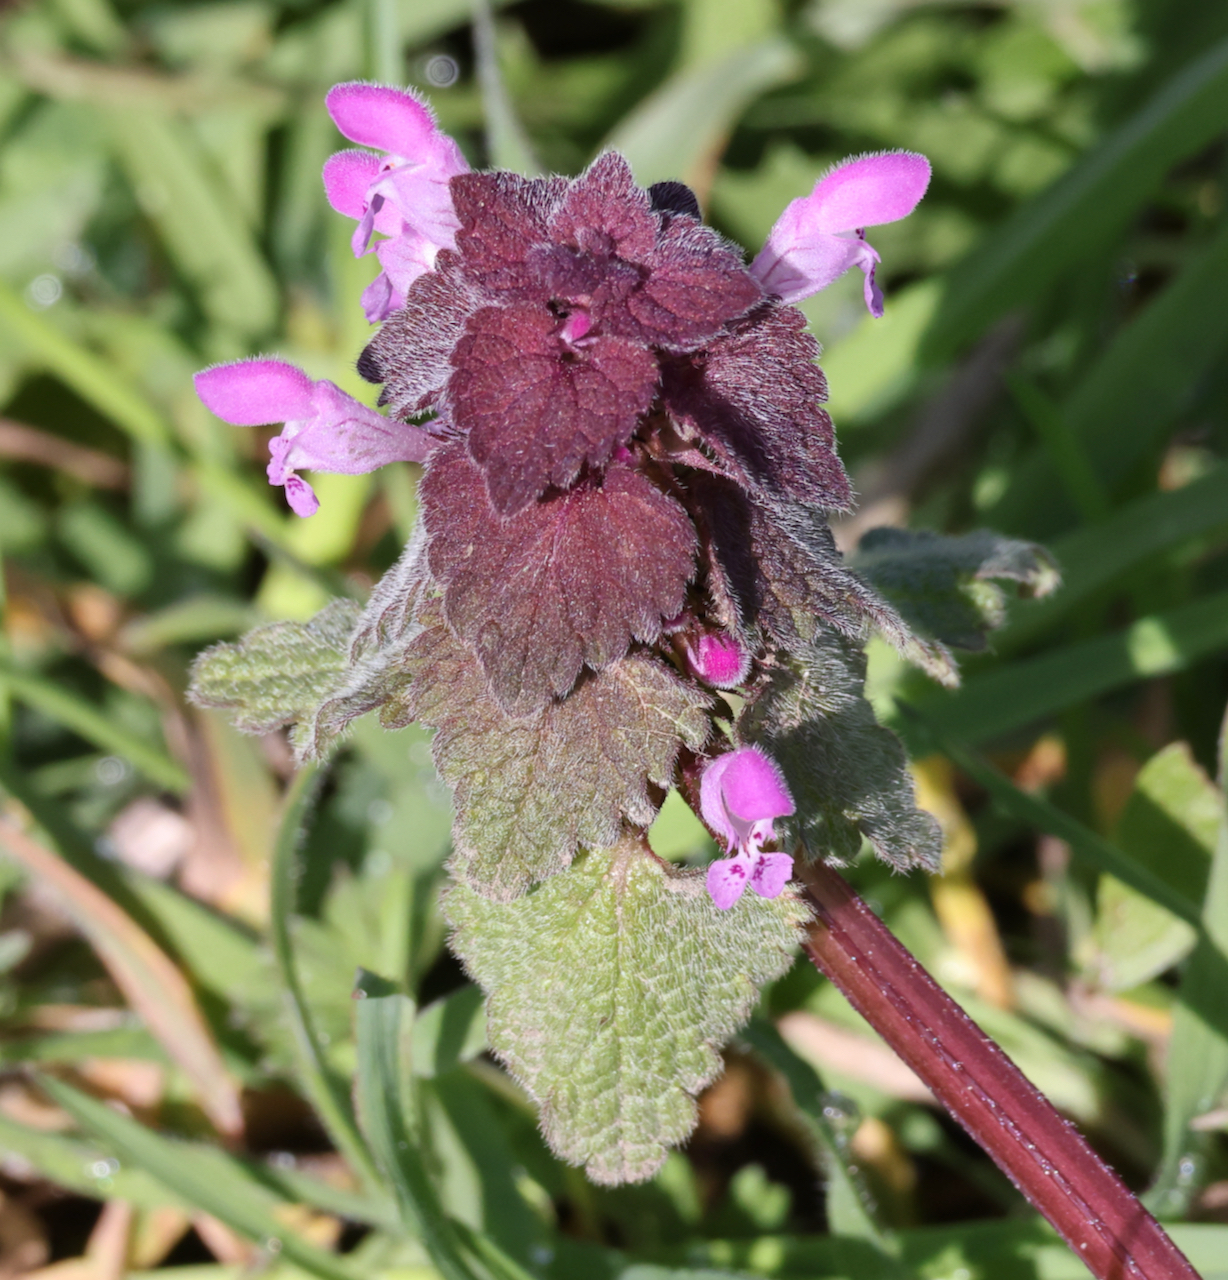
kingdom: Plantae
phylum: Tracheophyta
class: Magnoliopsida
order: Lamiales
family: Lamiaceae
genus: Lamium
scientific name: Lamium purpureum
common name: Red dead-nettle
